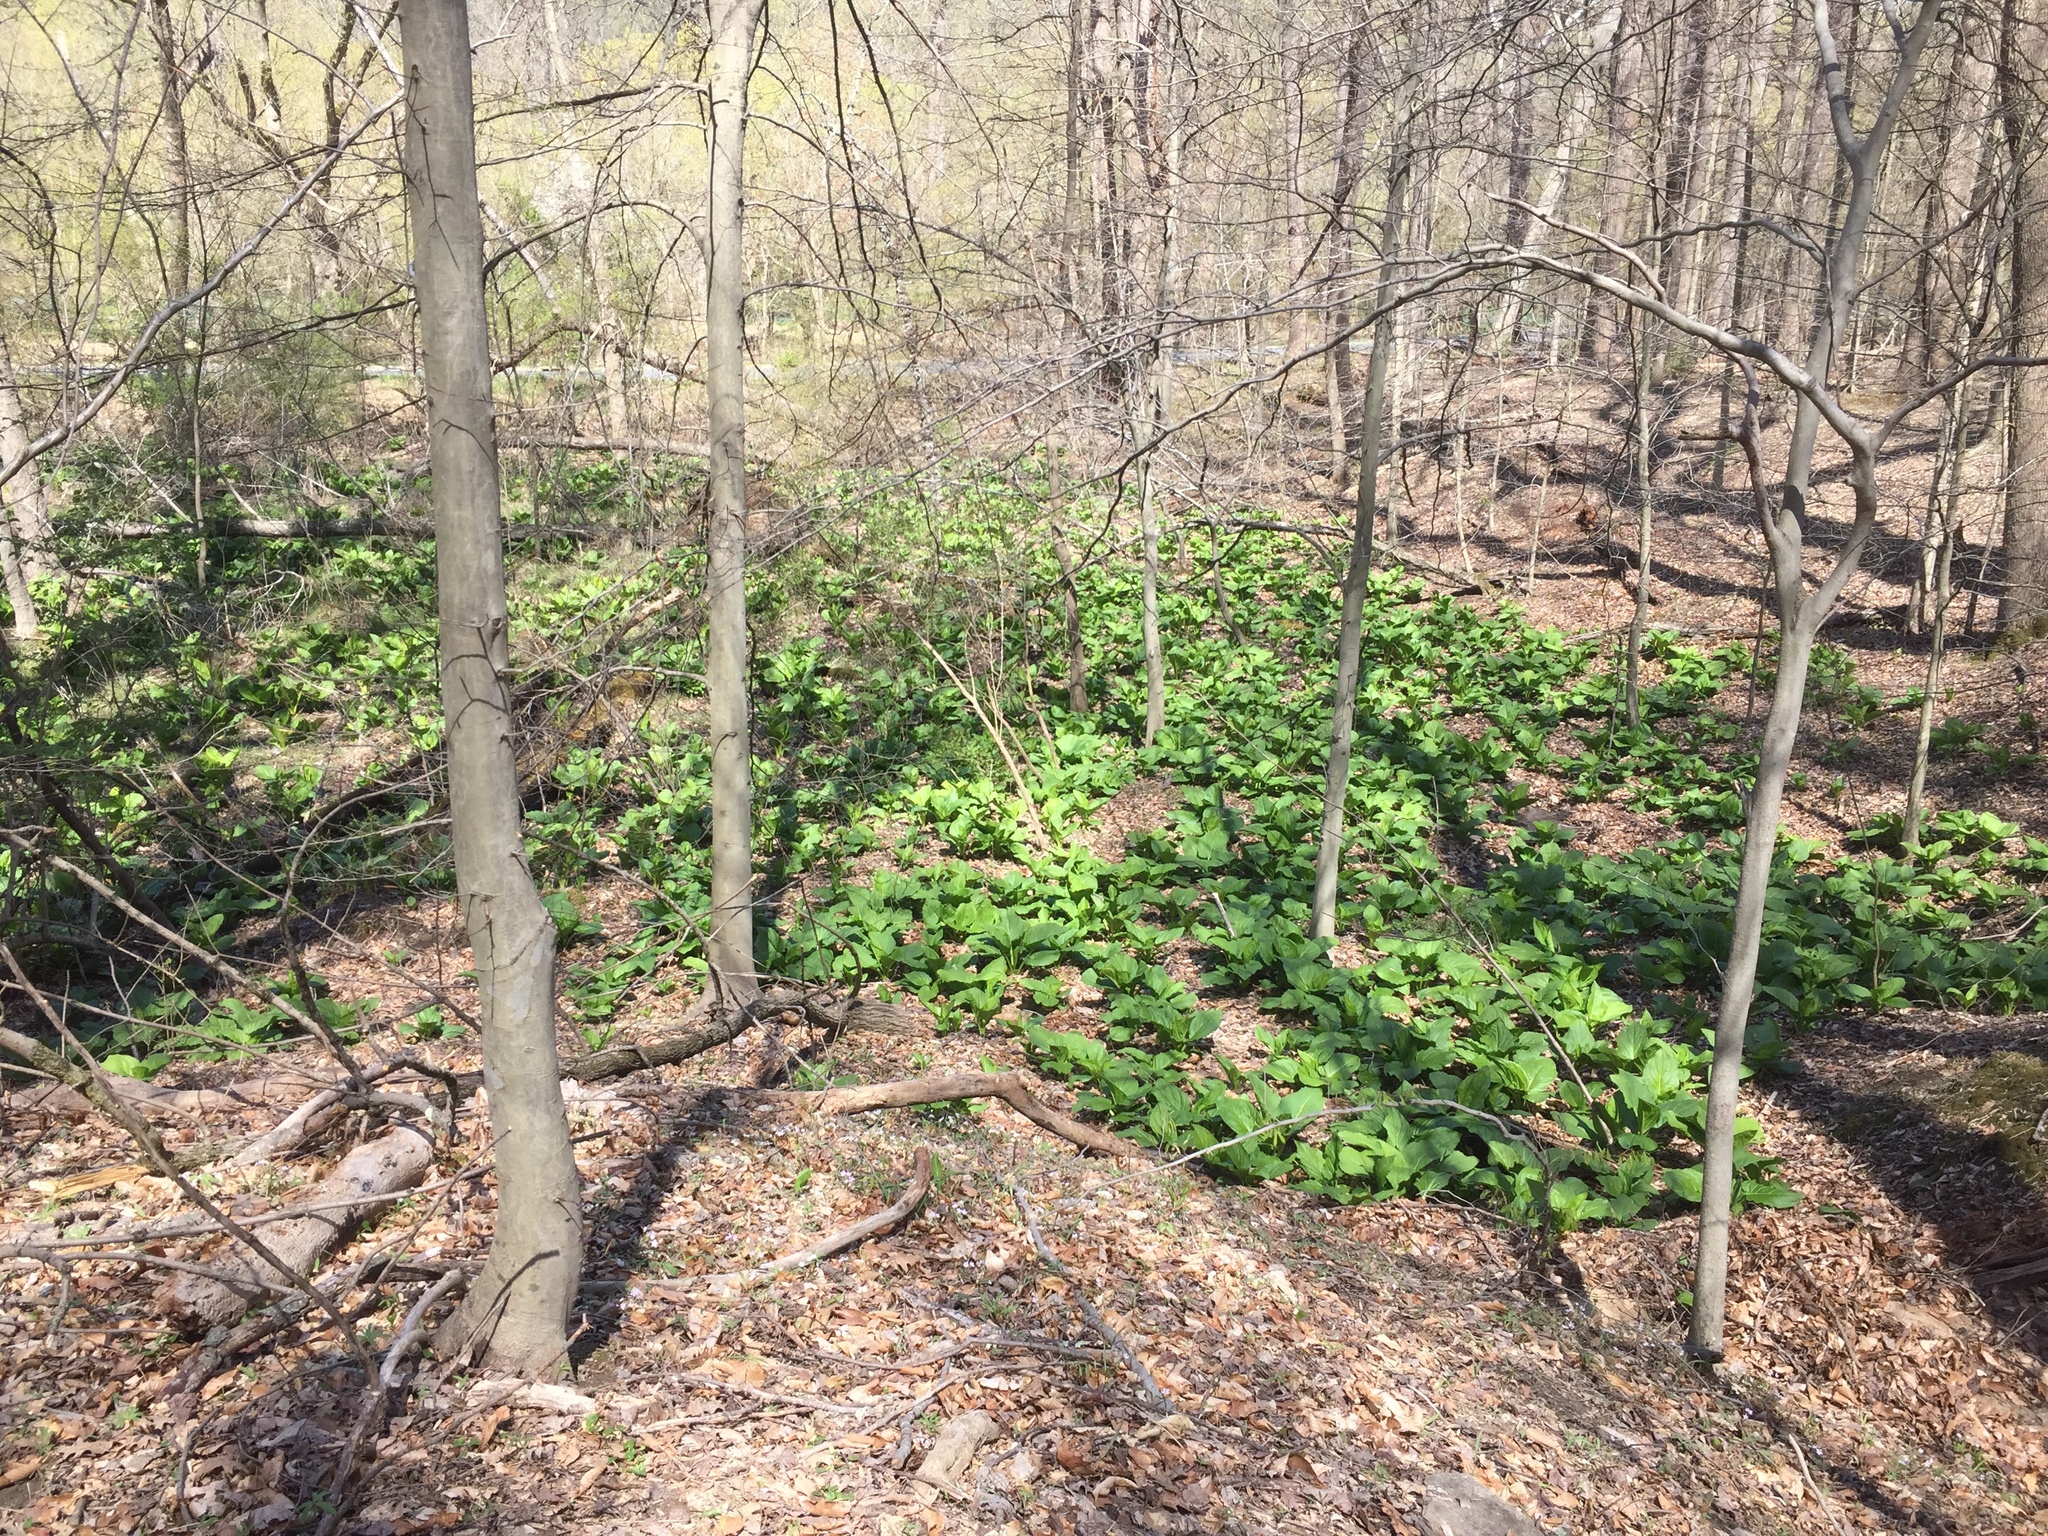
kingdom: Plantae
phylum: Tracheophyta
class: Liliopsida
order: Alismatales
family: Araceae
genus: Symplocarpus
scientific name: Symplocarpus foetidus
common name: Eastern skunk cabbage
